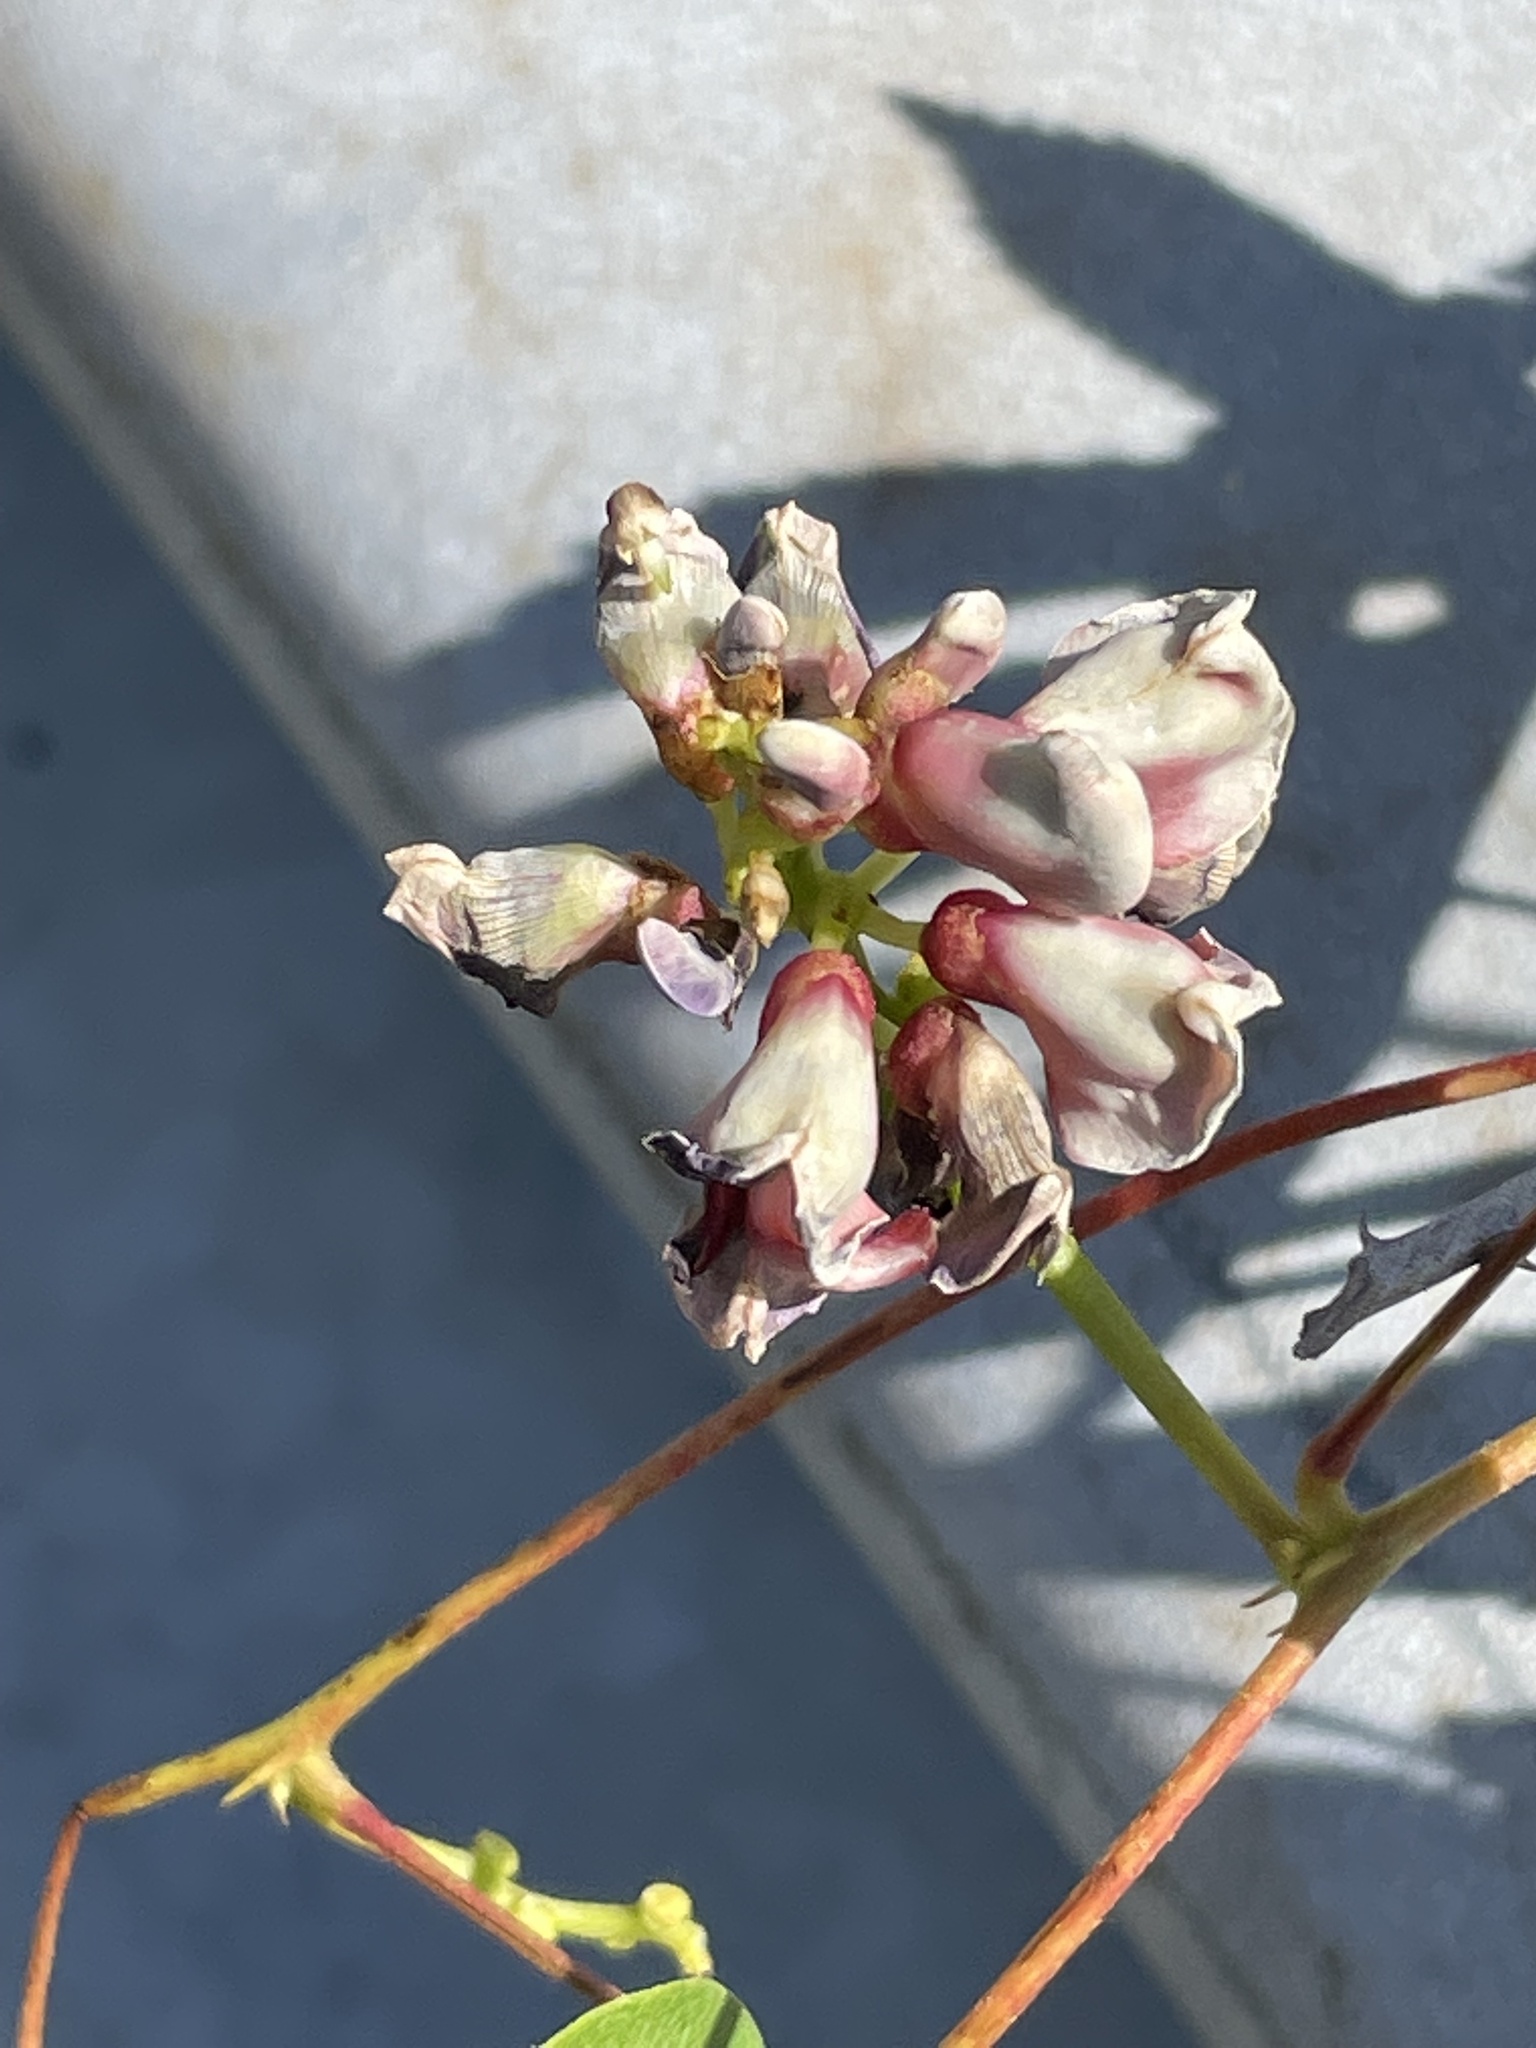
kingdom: Plantae
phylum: Tracheophyta
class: Magnoliopsida
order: Fabales
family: Fabaceae
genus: Apios
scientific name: Apios americana
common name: American potato-bean
